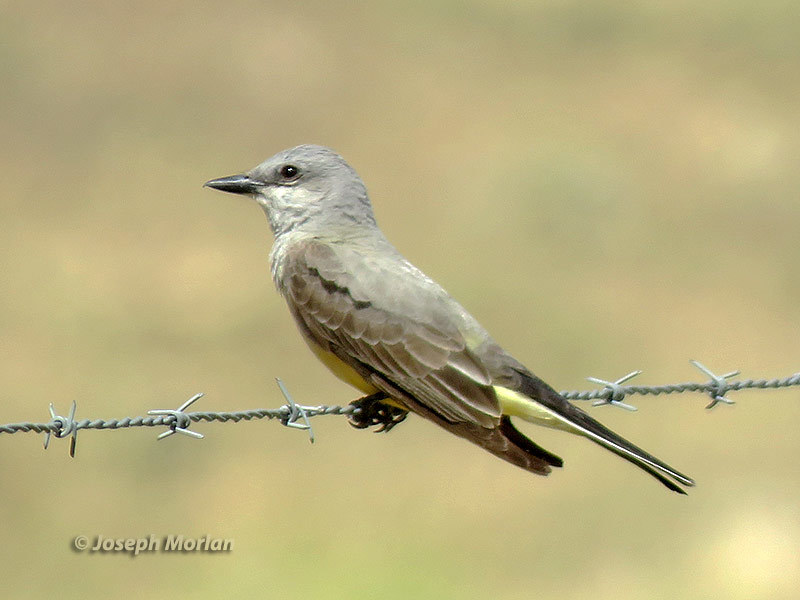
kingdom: Animalia
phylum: Chordata
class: Aves
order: Passeriformes
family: Tyrannidae
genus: Tyrannus
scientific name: Tyrannus verticalis
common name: Western kingbird
